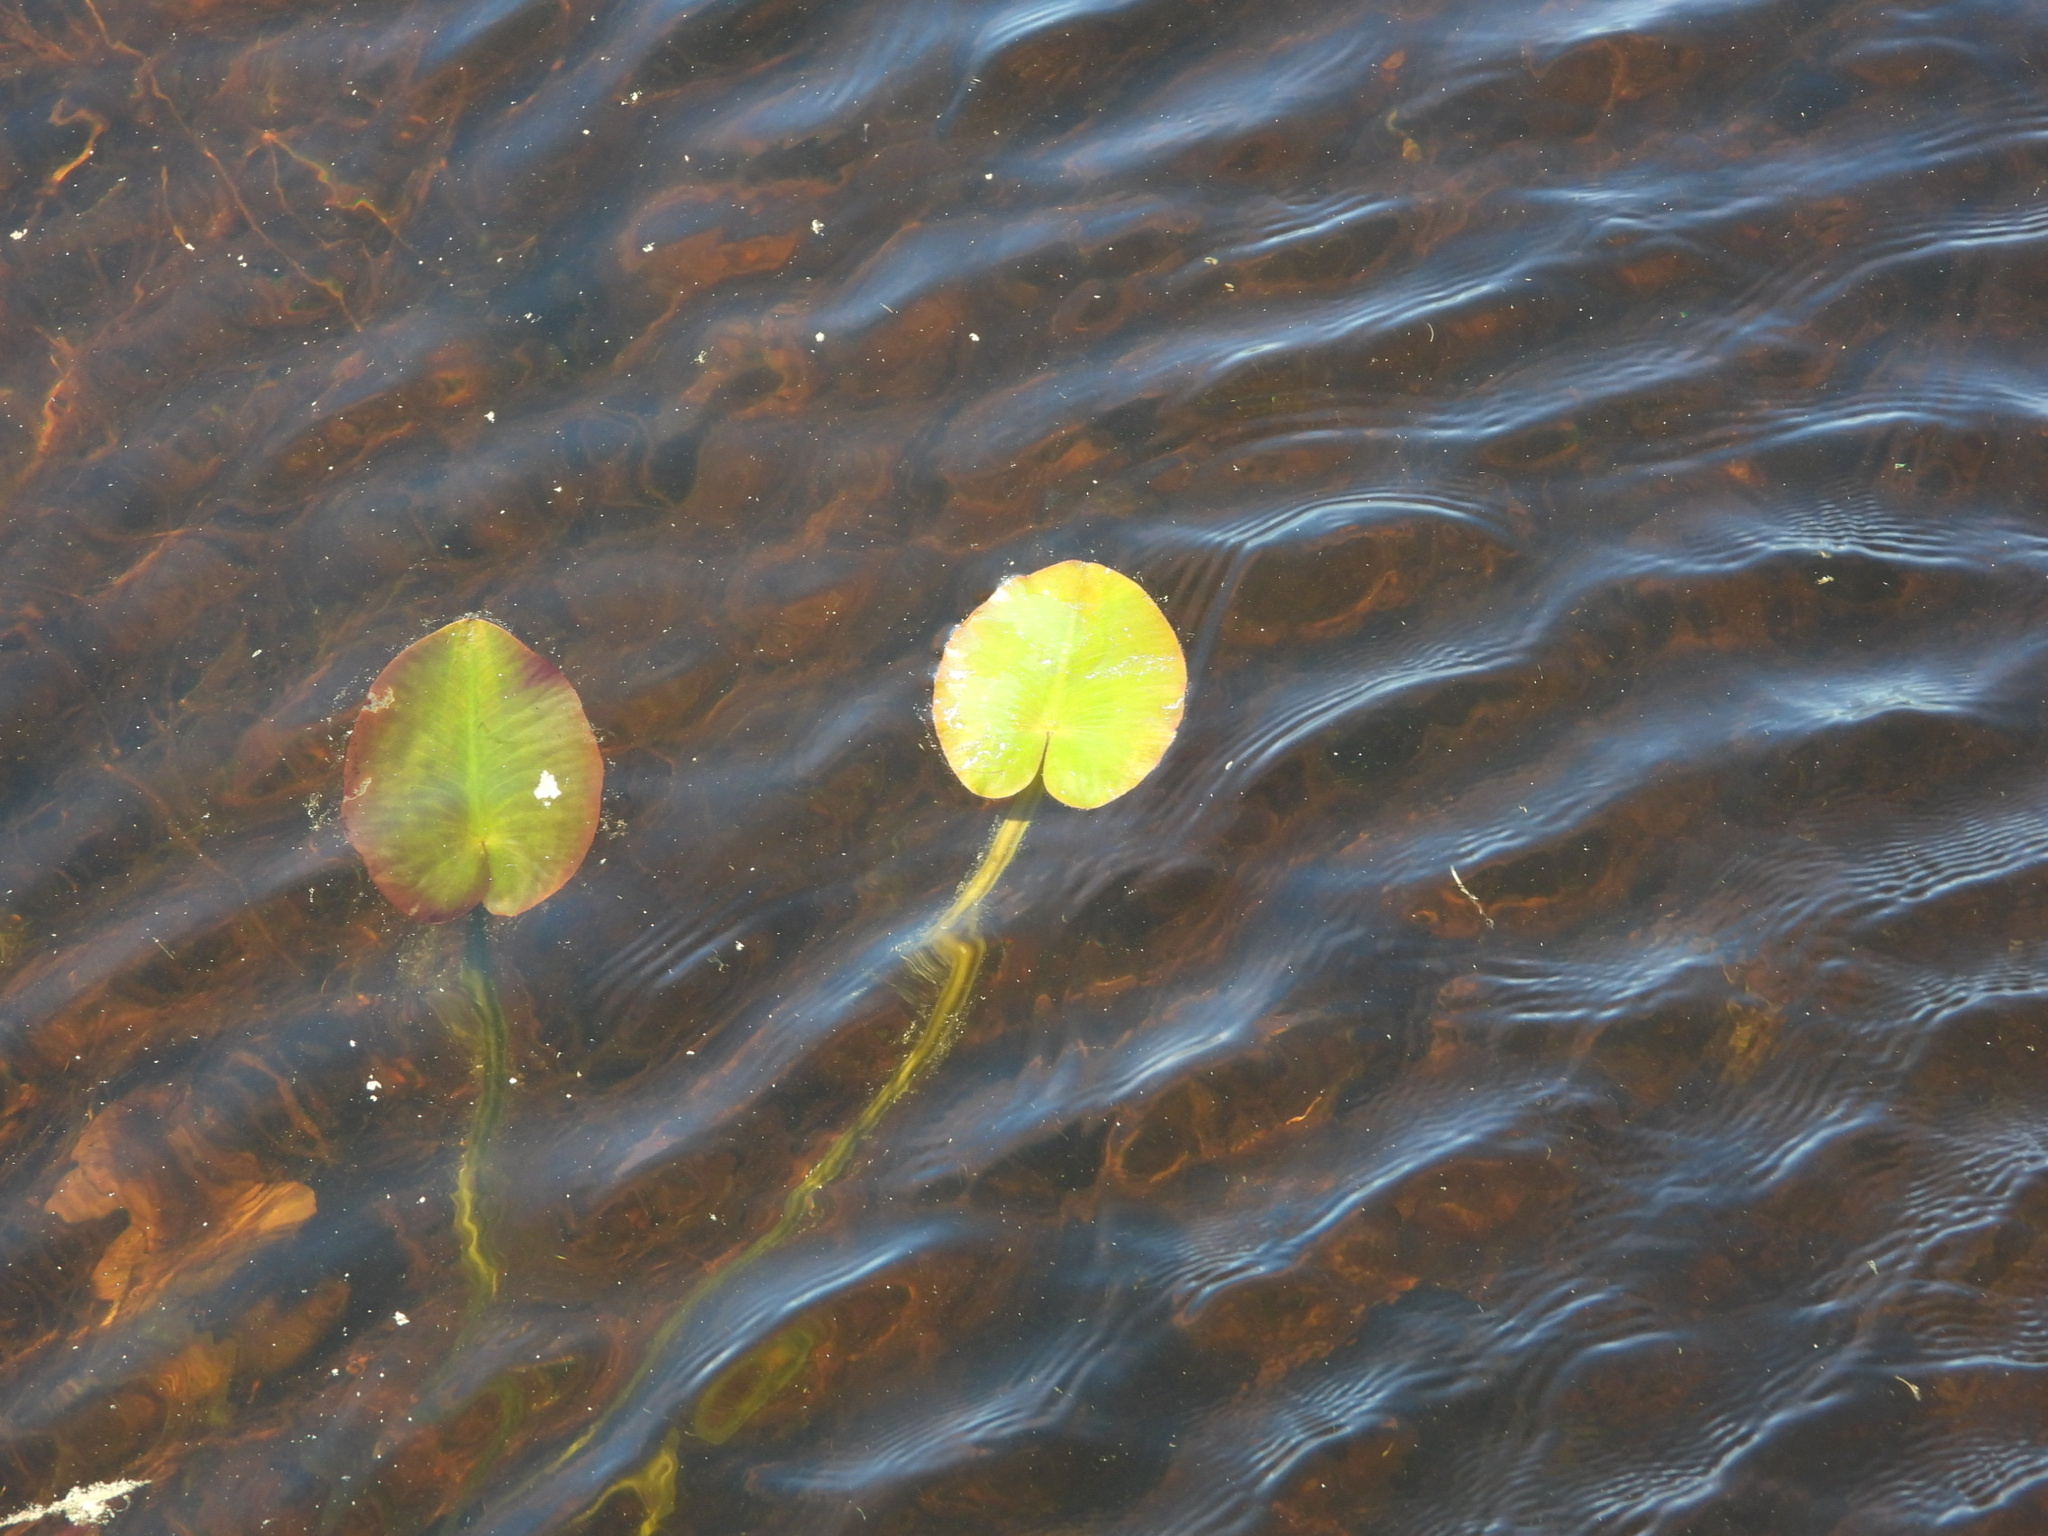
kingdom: Plantae
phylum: Tracheophyta
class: Magnoliopsida
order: Nymphaeales
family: Nymphaeaceae
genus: Nuphar
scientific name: Nuphar variegata
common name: Beaver-root
